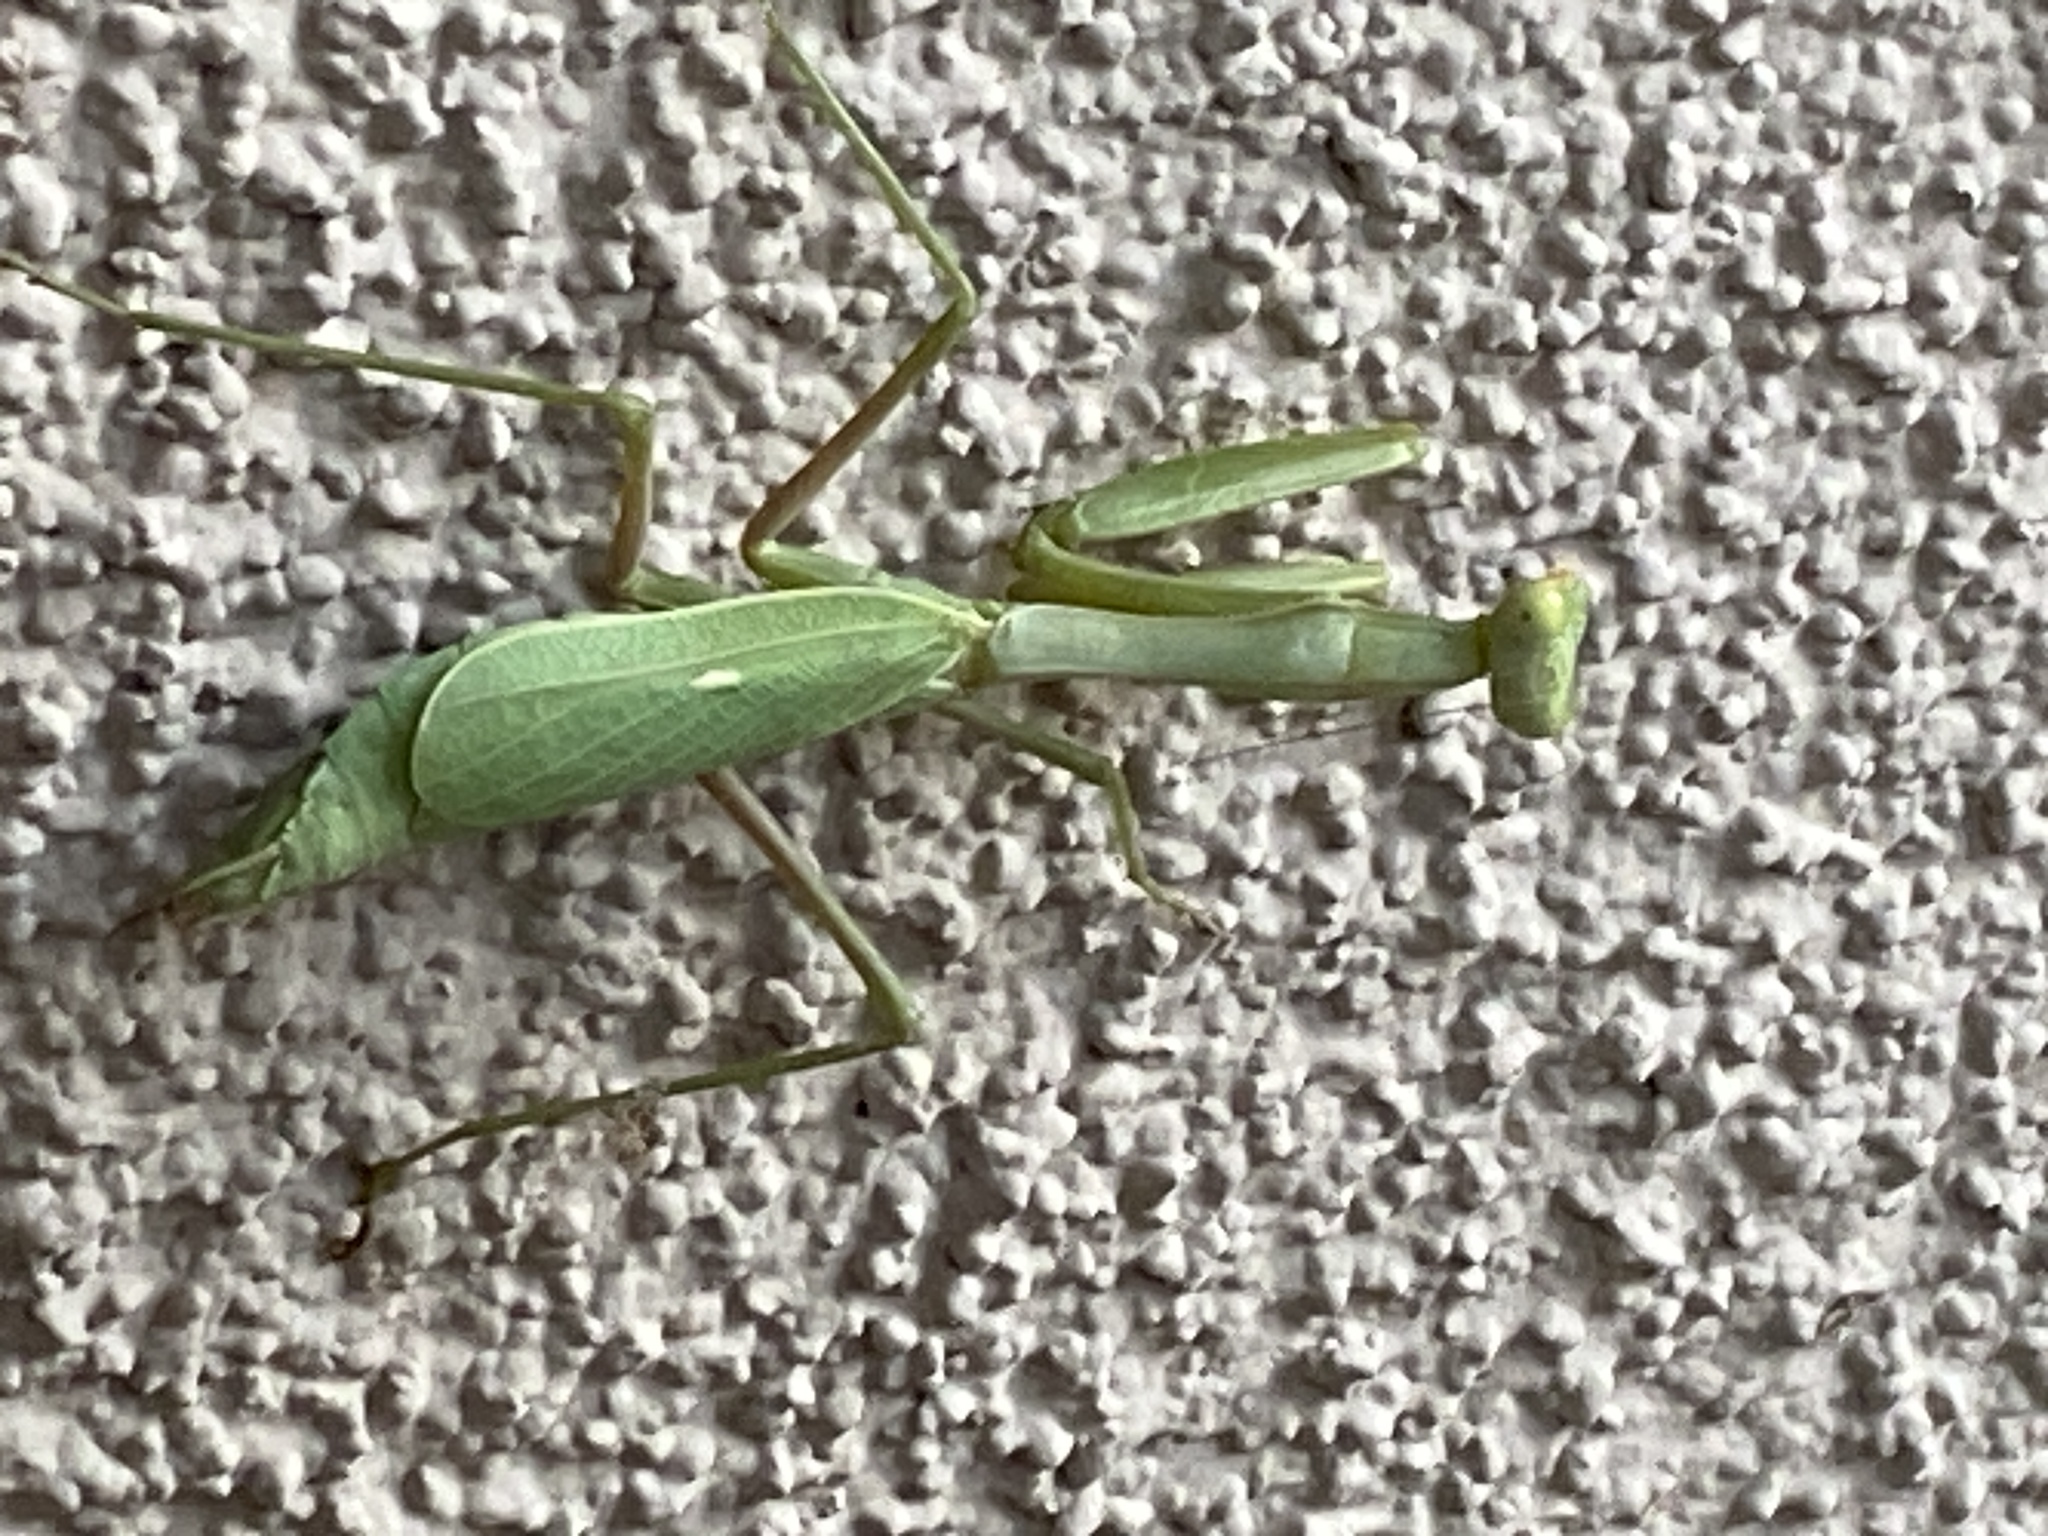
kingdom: Animalia
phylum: Arthropoda
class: Insecta
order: Mantodea
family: Mantidae
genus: Stagmomantis
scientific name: Stagmomantis limbata
